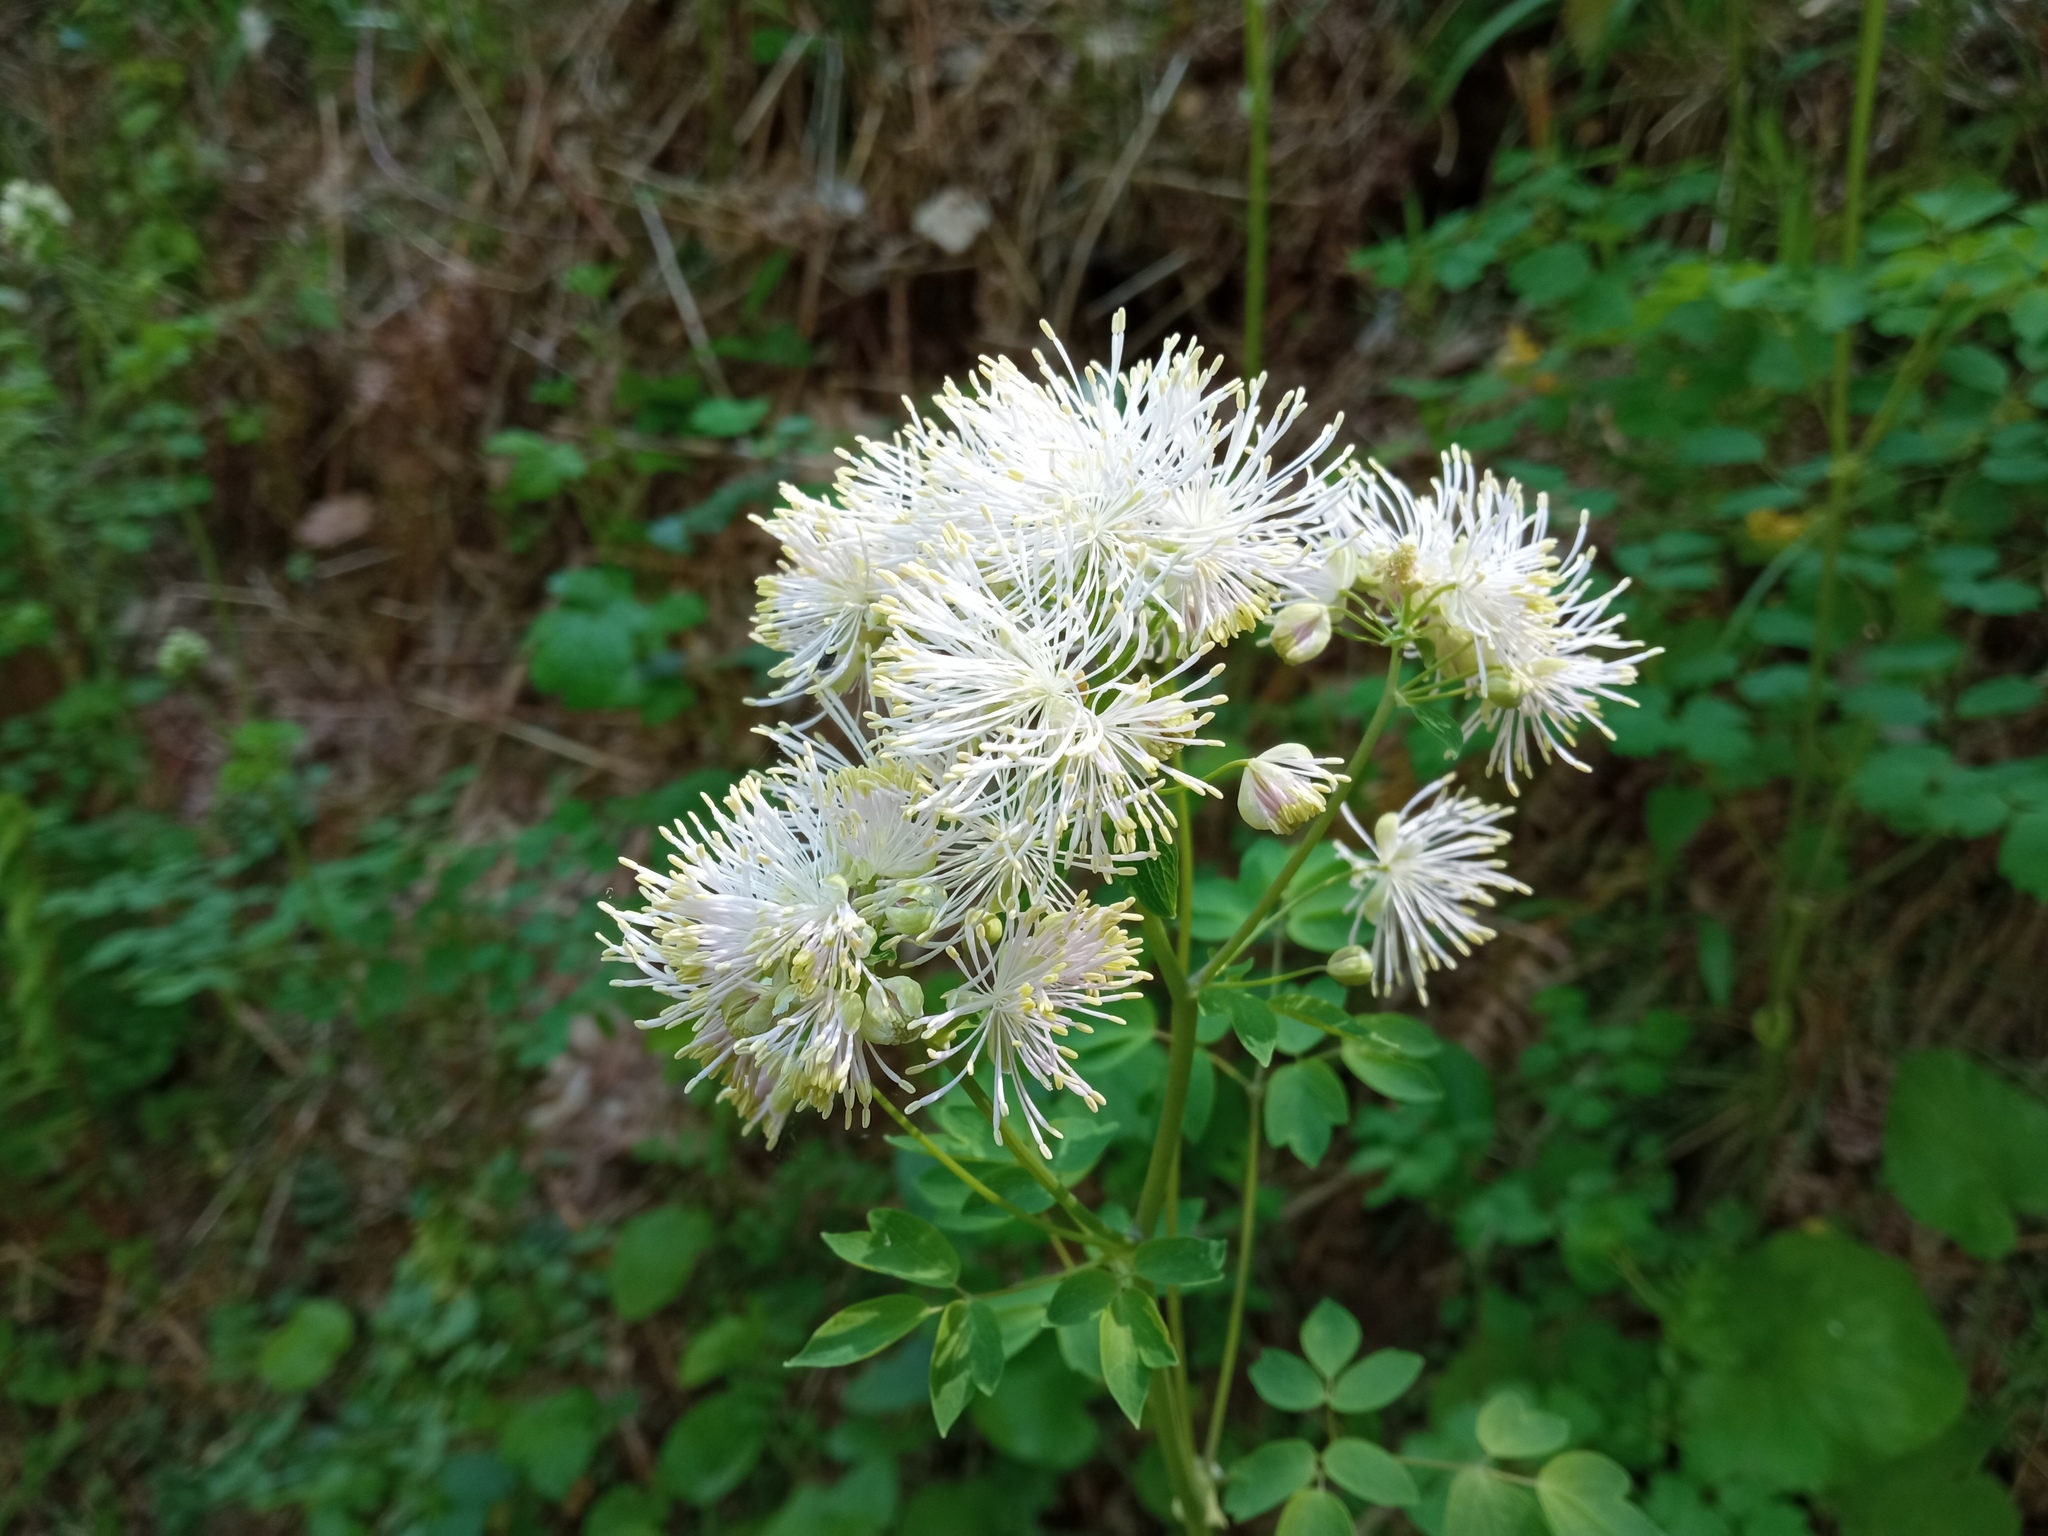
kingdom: Plantae
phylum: Tracheophyta
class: Magnoliopsida
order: Ranunculales
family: Ranunculaceae
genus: Thalictrum
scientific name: Thalictrum aquilegiifolium
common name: French meadow-rue
